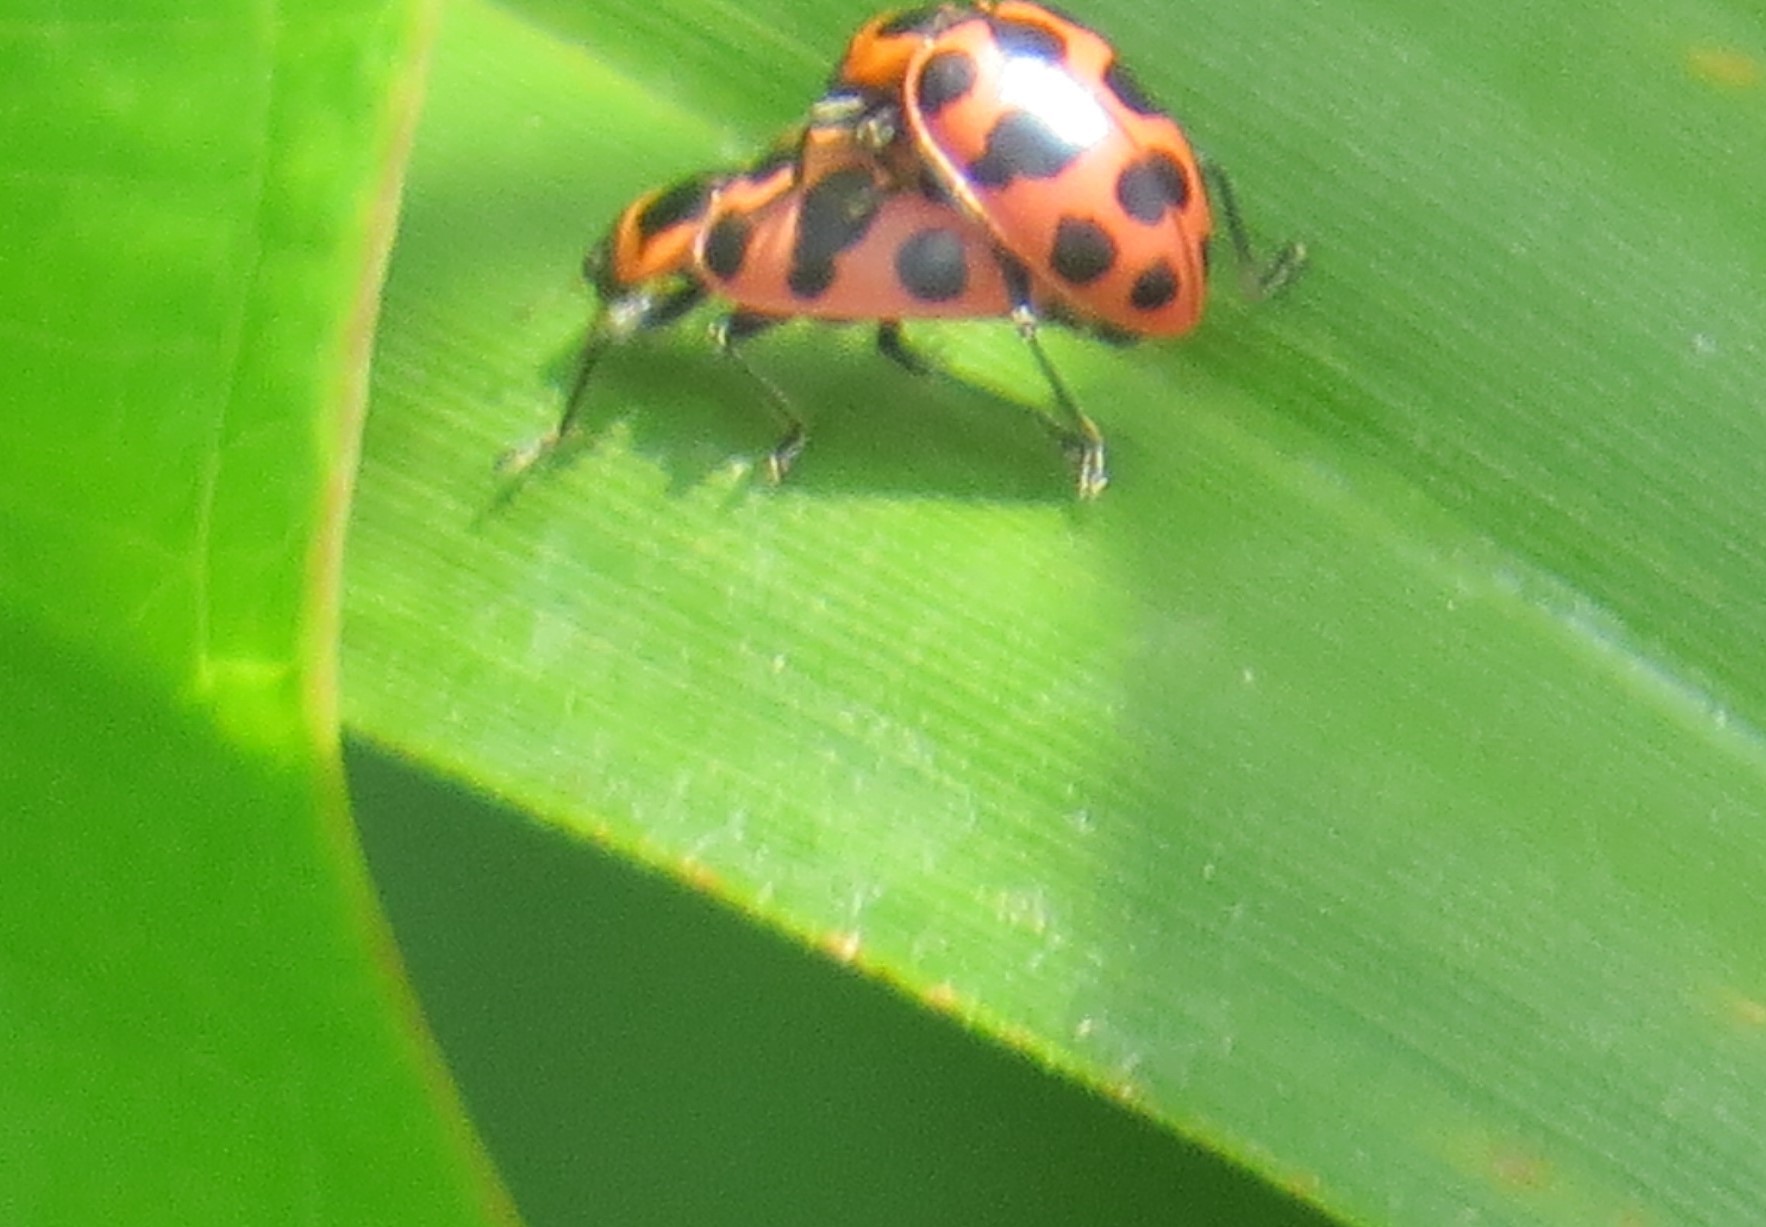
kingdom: Animalia
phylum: Arthropoda
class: Insecta
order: Coleoptera
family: Coccinellidae
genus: Coleomegilla
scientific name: Coleomegilla maculata
